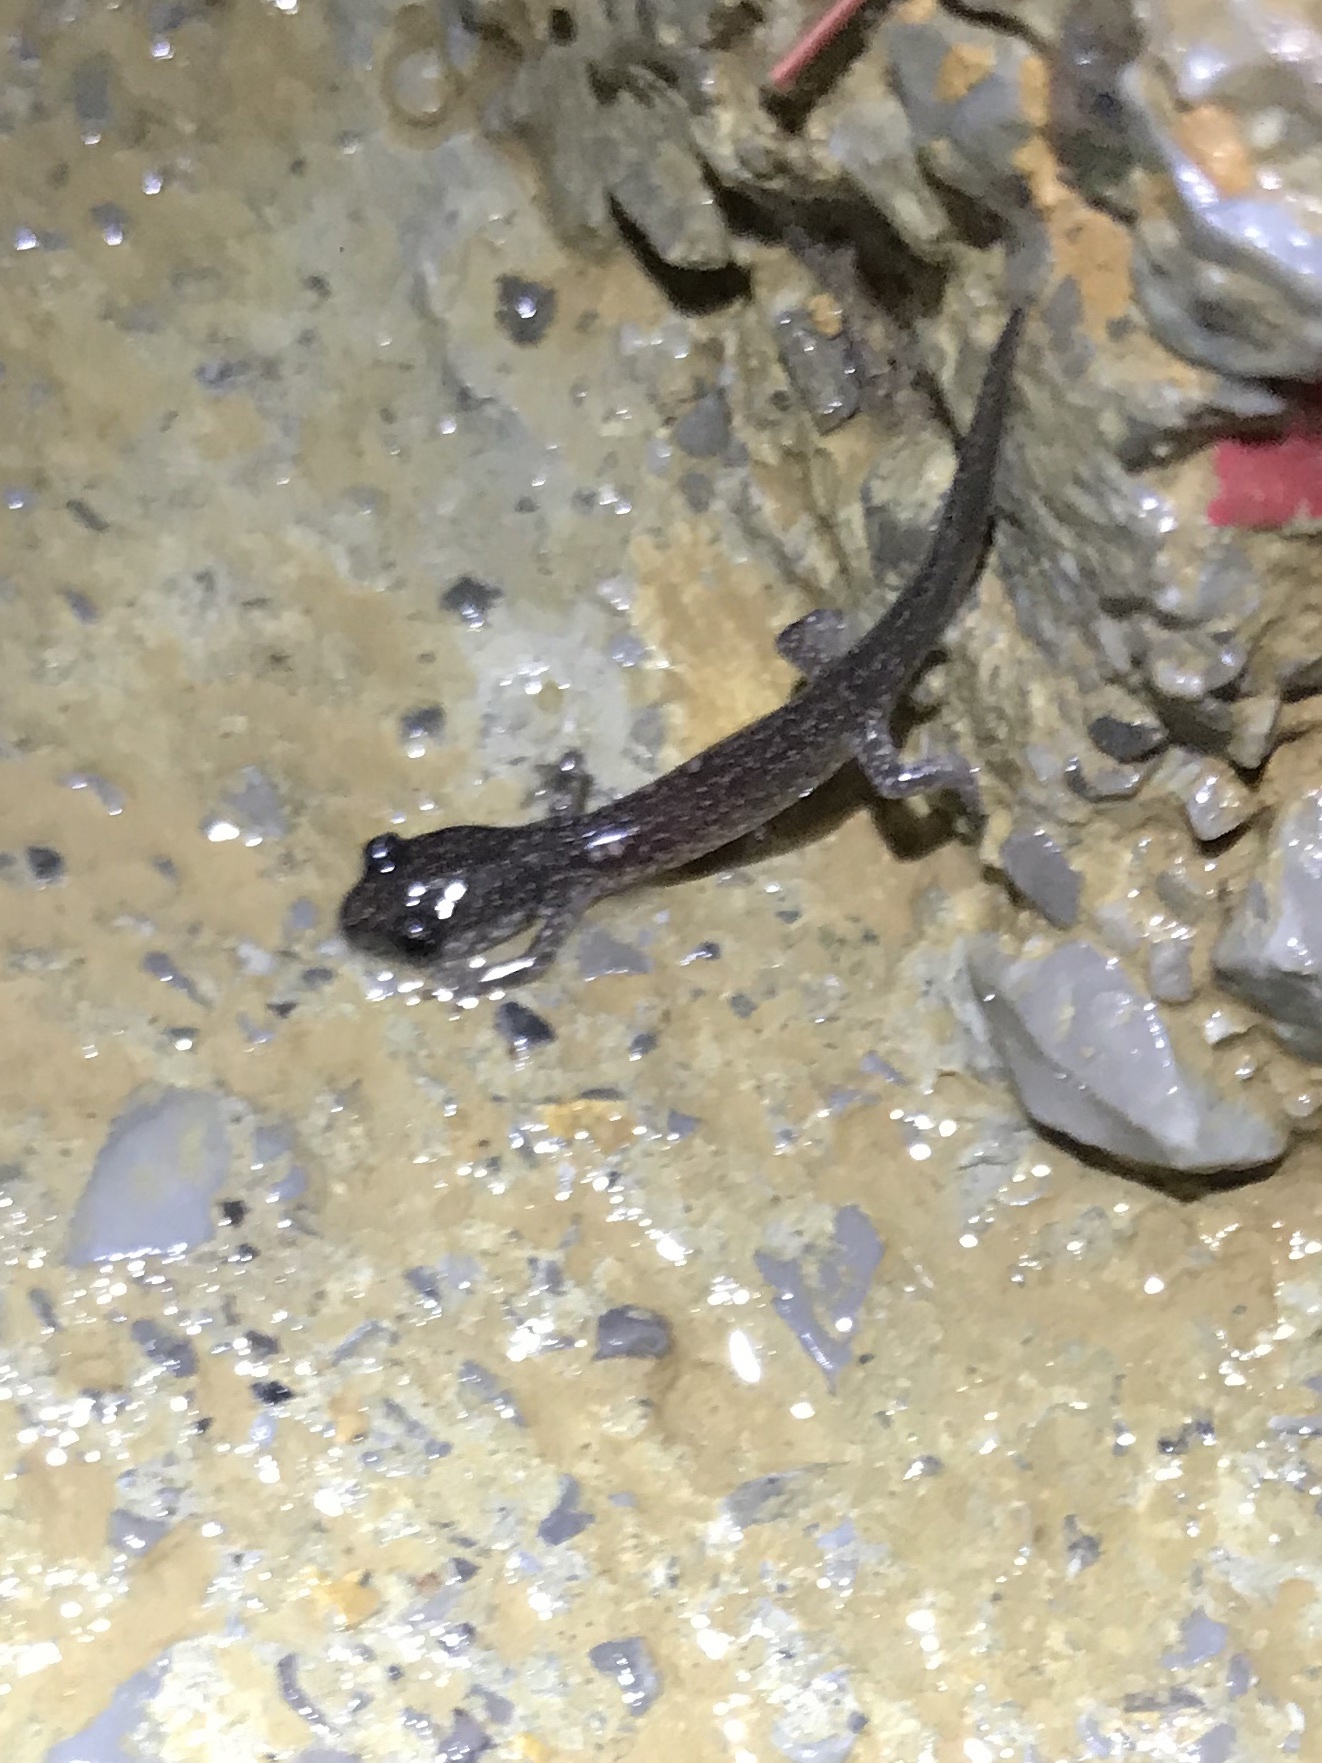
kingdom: Animalia
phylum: Chordata
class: Amphibia
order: Caudata
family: Plethodontidae
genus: Plethodon
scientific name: Plethodon glutinosus
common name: Northern slimy salamander
